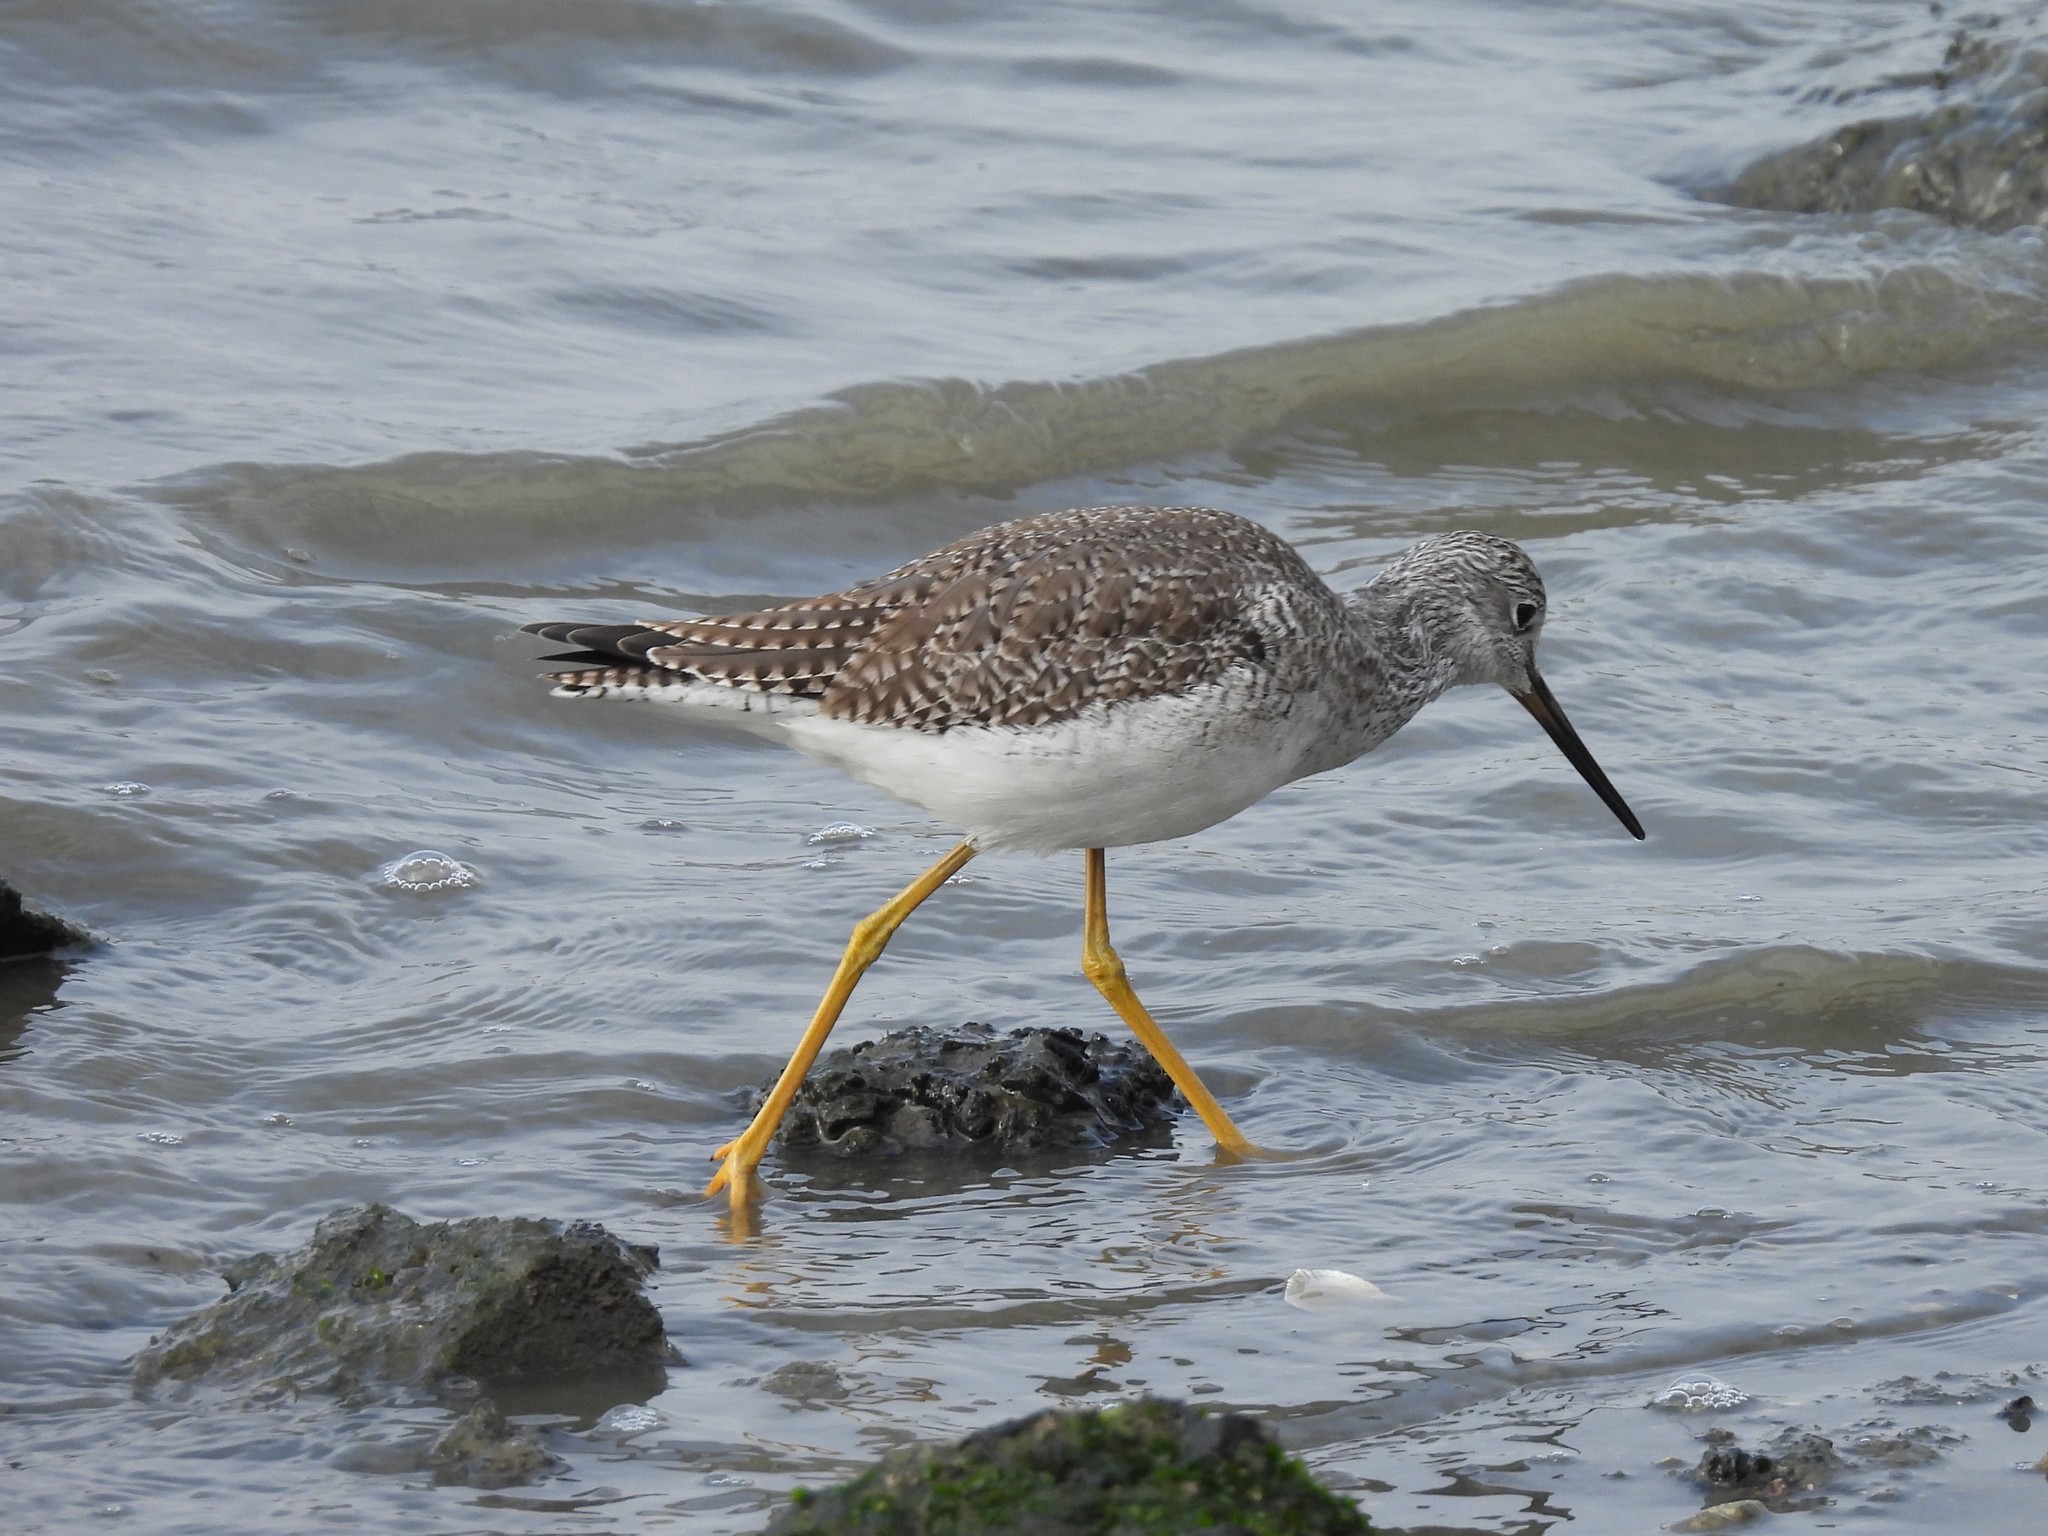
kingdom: Animalia
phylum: Chordata
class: Aves
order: Charadriiformes
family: Scolopacidae
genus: Tringa
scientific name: Tringa melanoleuca
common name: Greater yellowlegs
